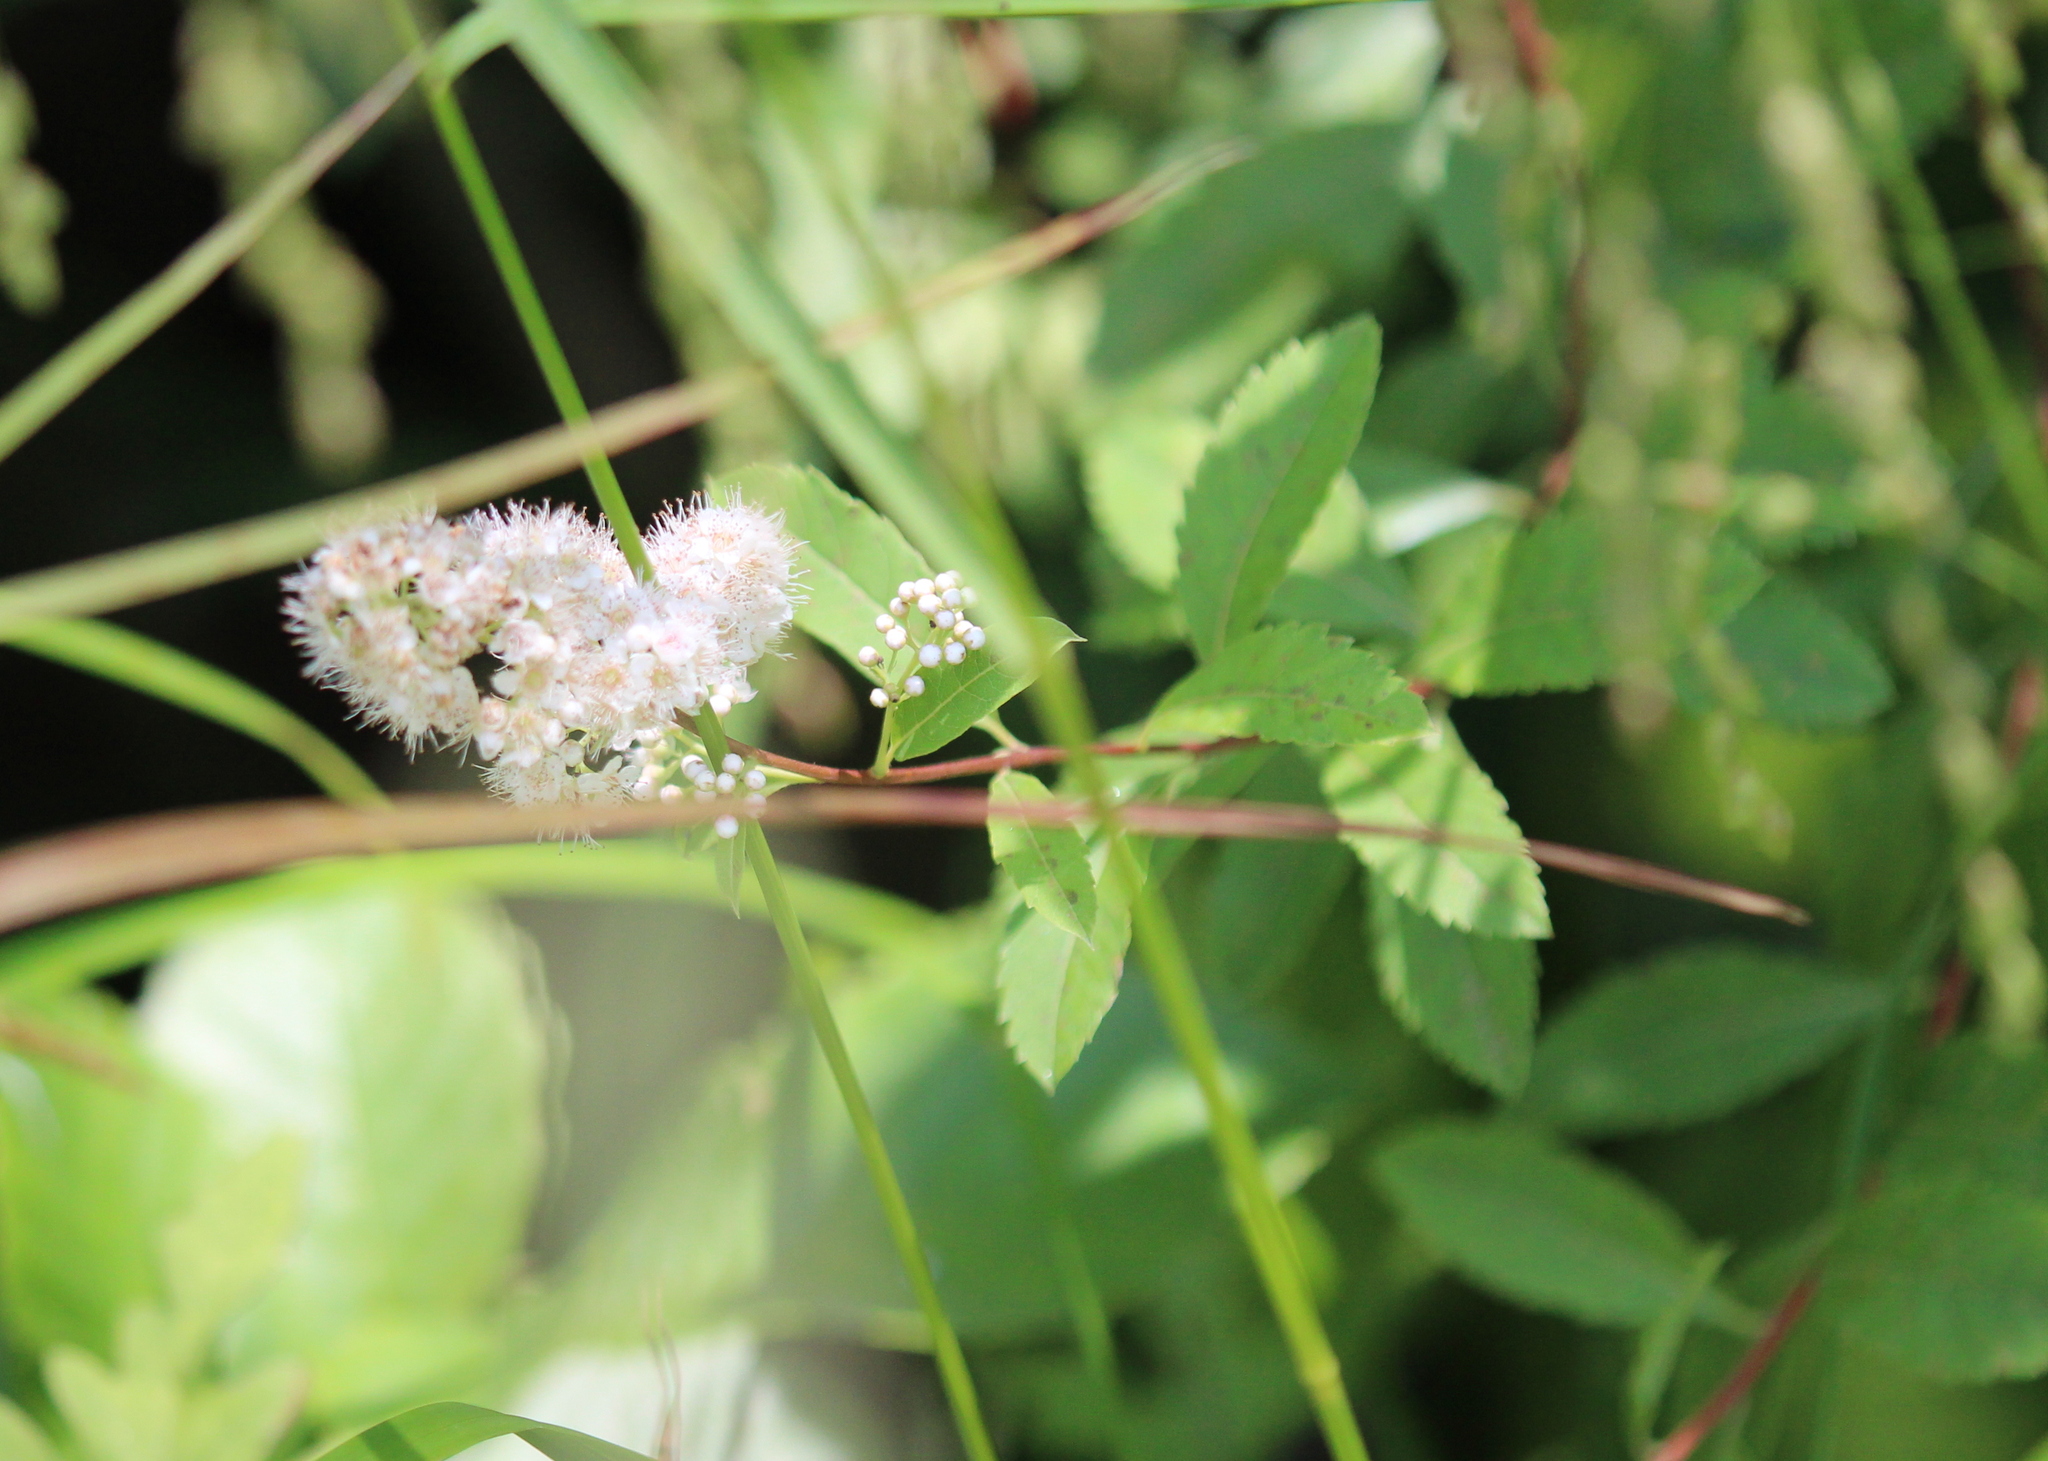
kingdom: Plantae
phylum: Tracheophyta
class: Magnoliopsida
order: Rosales
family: Rosaceae
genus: Spiraea
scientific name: Spiraea alba
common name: Pale bridewort
